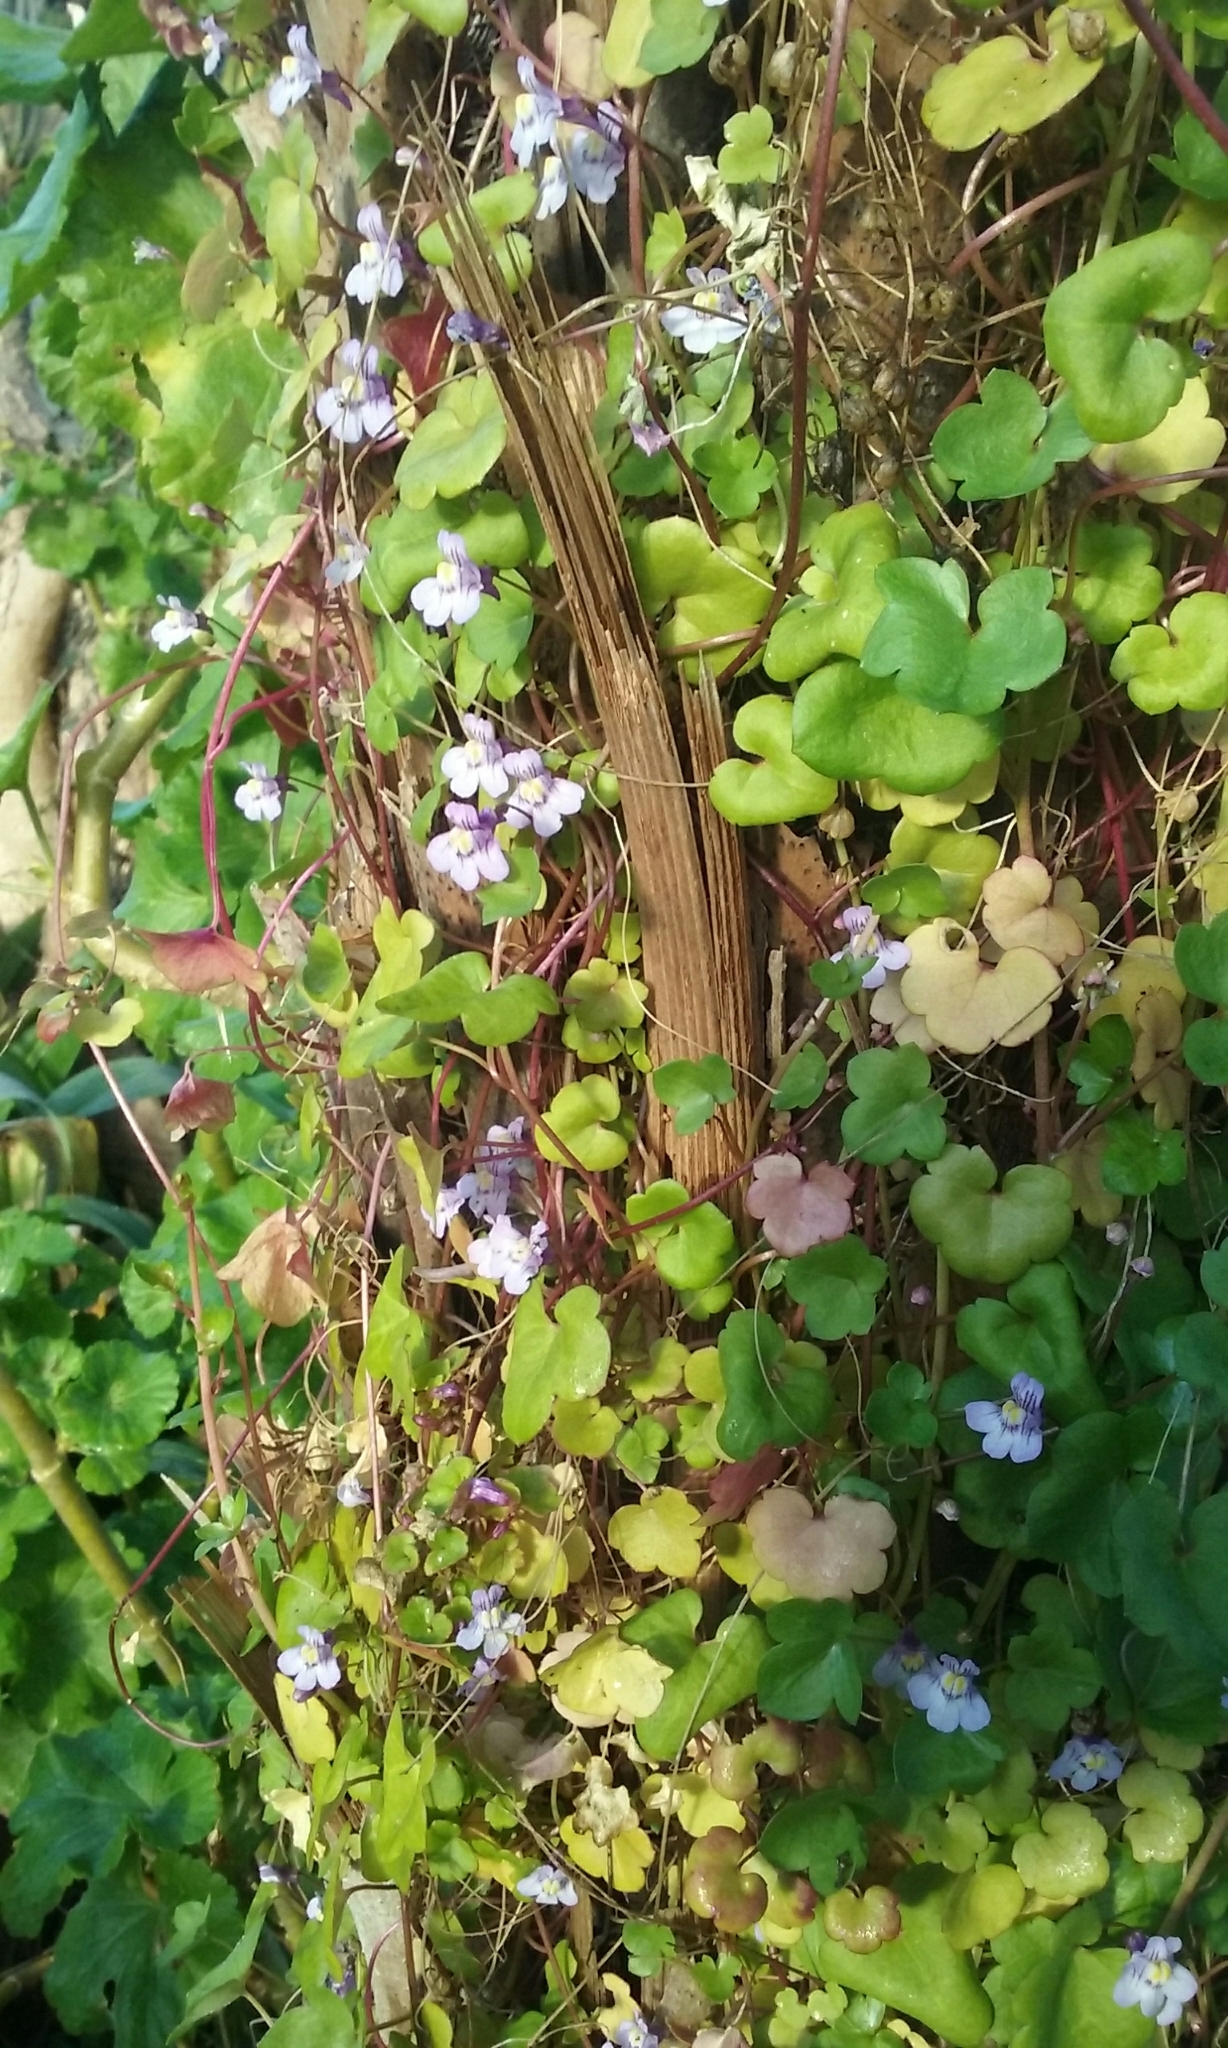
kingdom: Plantae
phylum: Tracheophyta
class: Magnoliopsida
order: Lamiales
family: Plantaginaceae
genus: Cymbalaria
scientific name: Cymbalaria muralis
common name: Ivy-leaved toadflax
